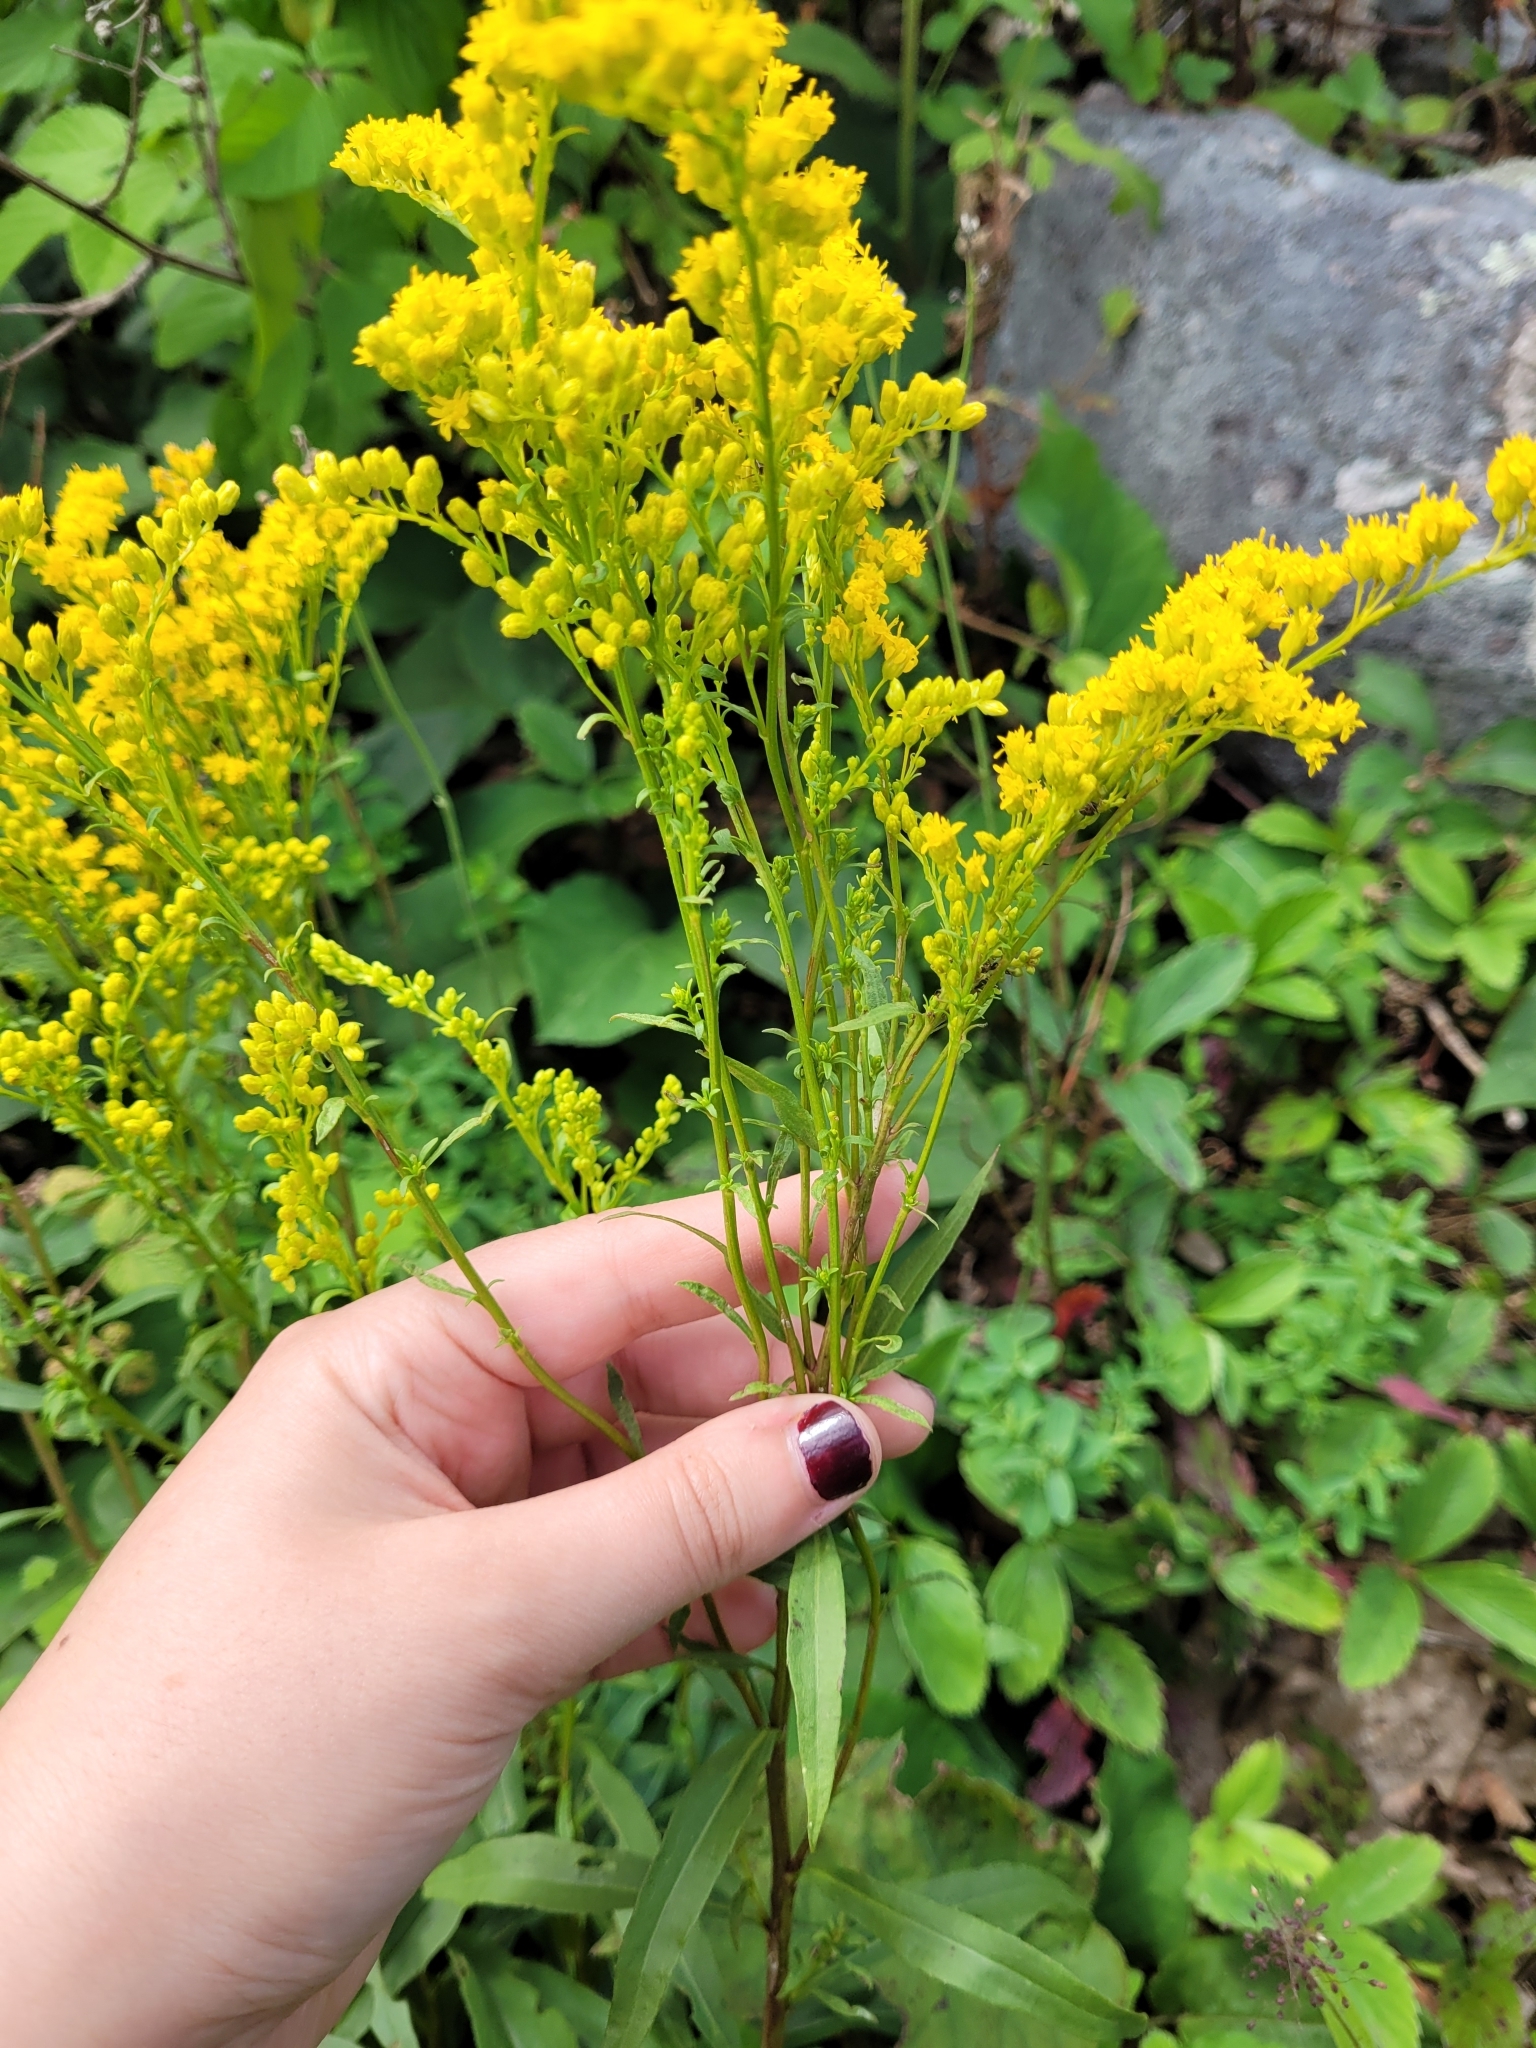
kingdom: Plantae
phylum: Tracheophyta
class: Magnoliopsida
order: Asterales
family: Asteraceae
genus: Solidago
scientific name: Solidago juncea
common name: Early goldenrod
